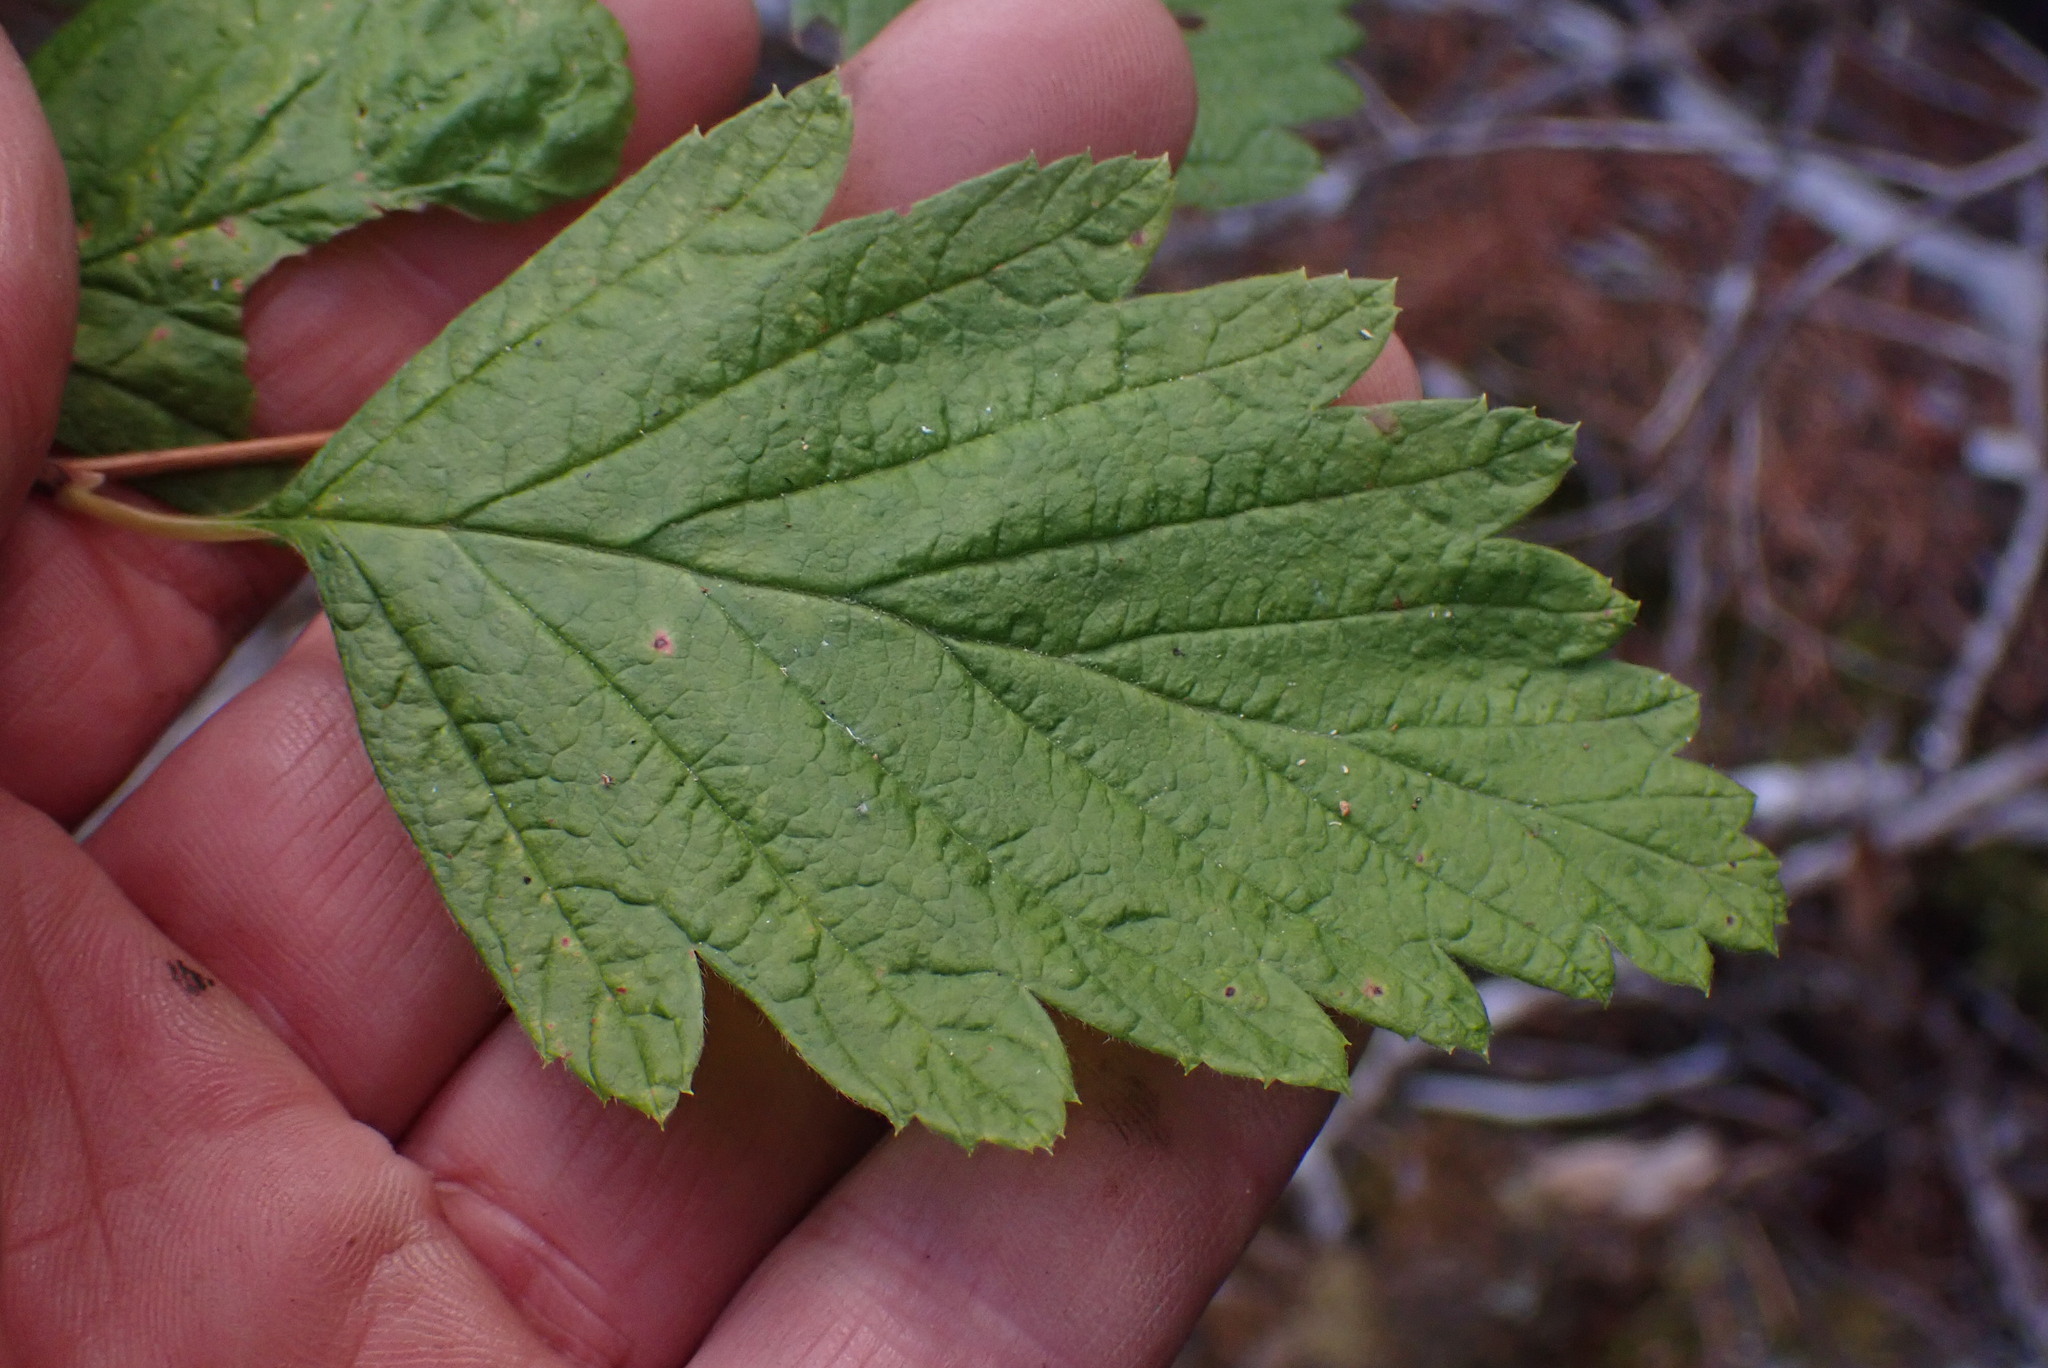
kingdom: Plantae
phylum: Tracheophyta
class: Magnoliopsida
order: Rosales
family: Rosaceae
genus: Holodiscus
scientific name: Holodiscus discolor
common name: Oceanspray
